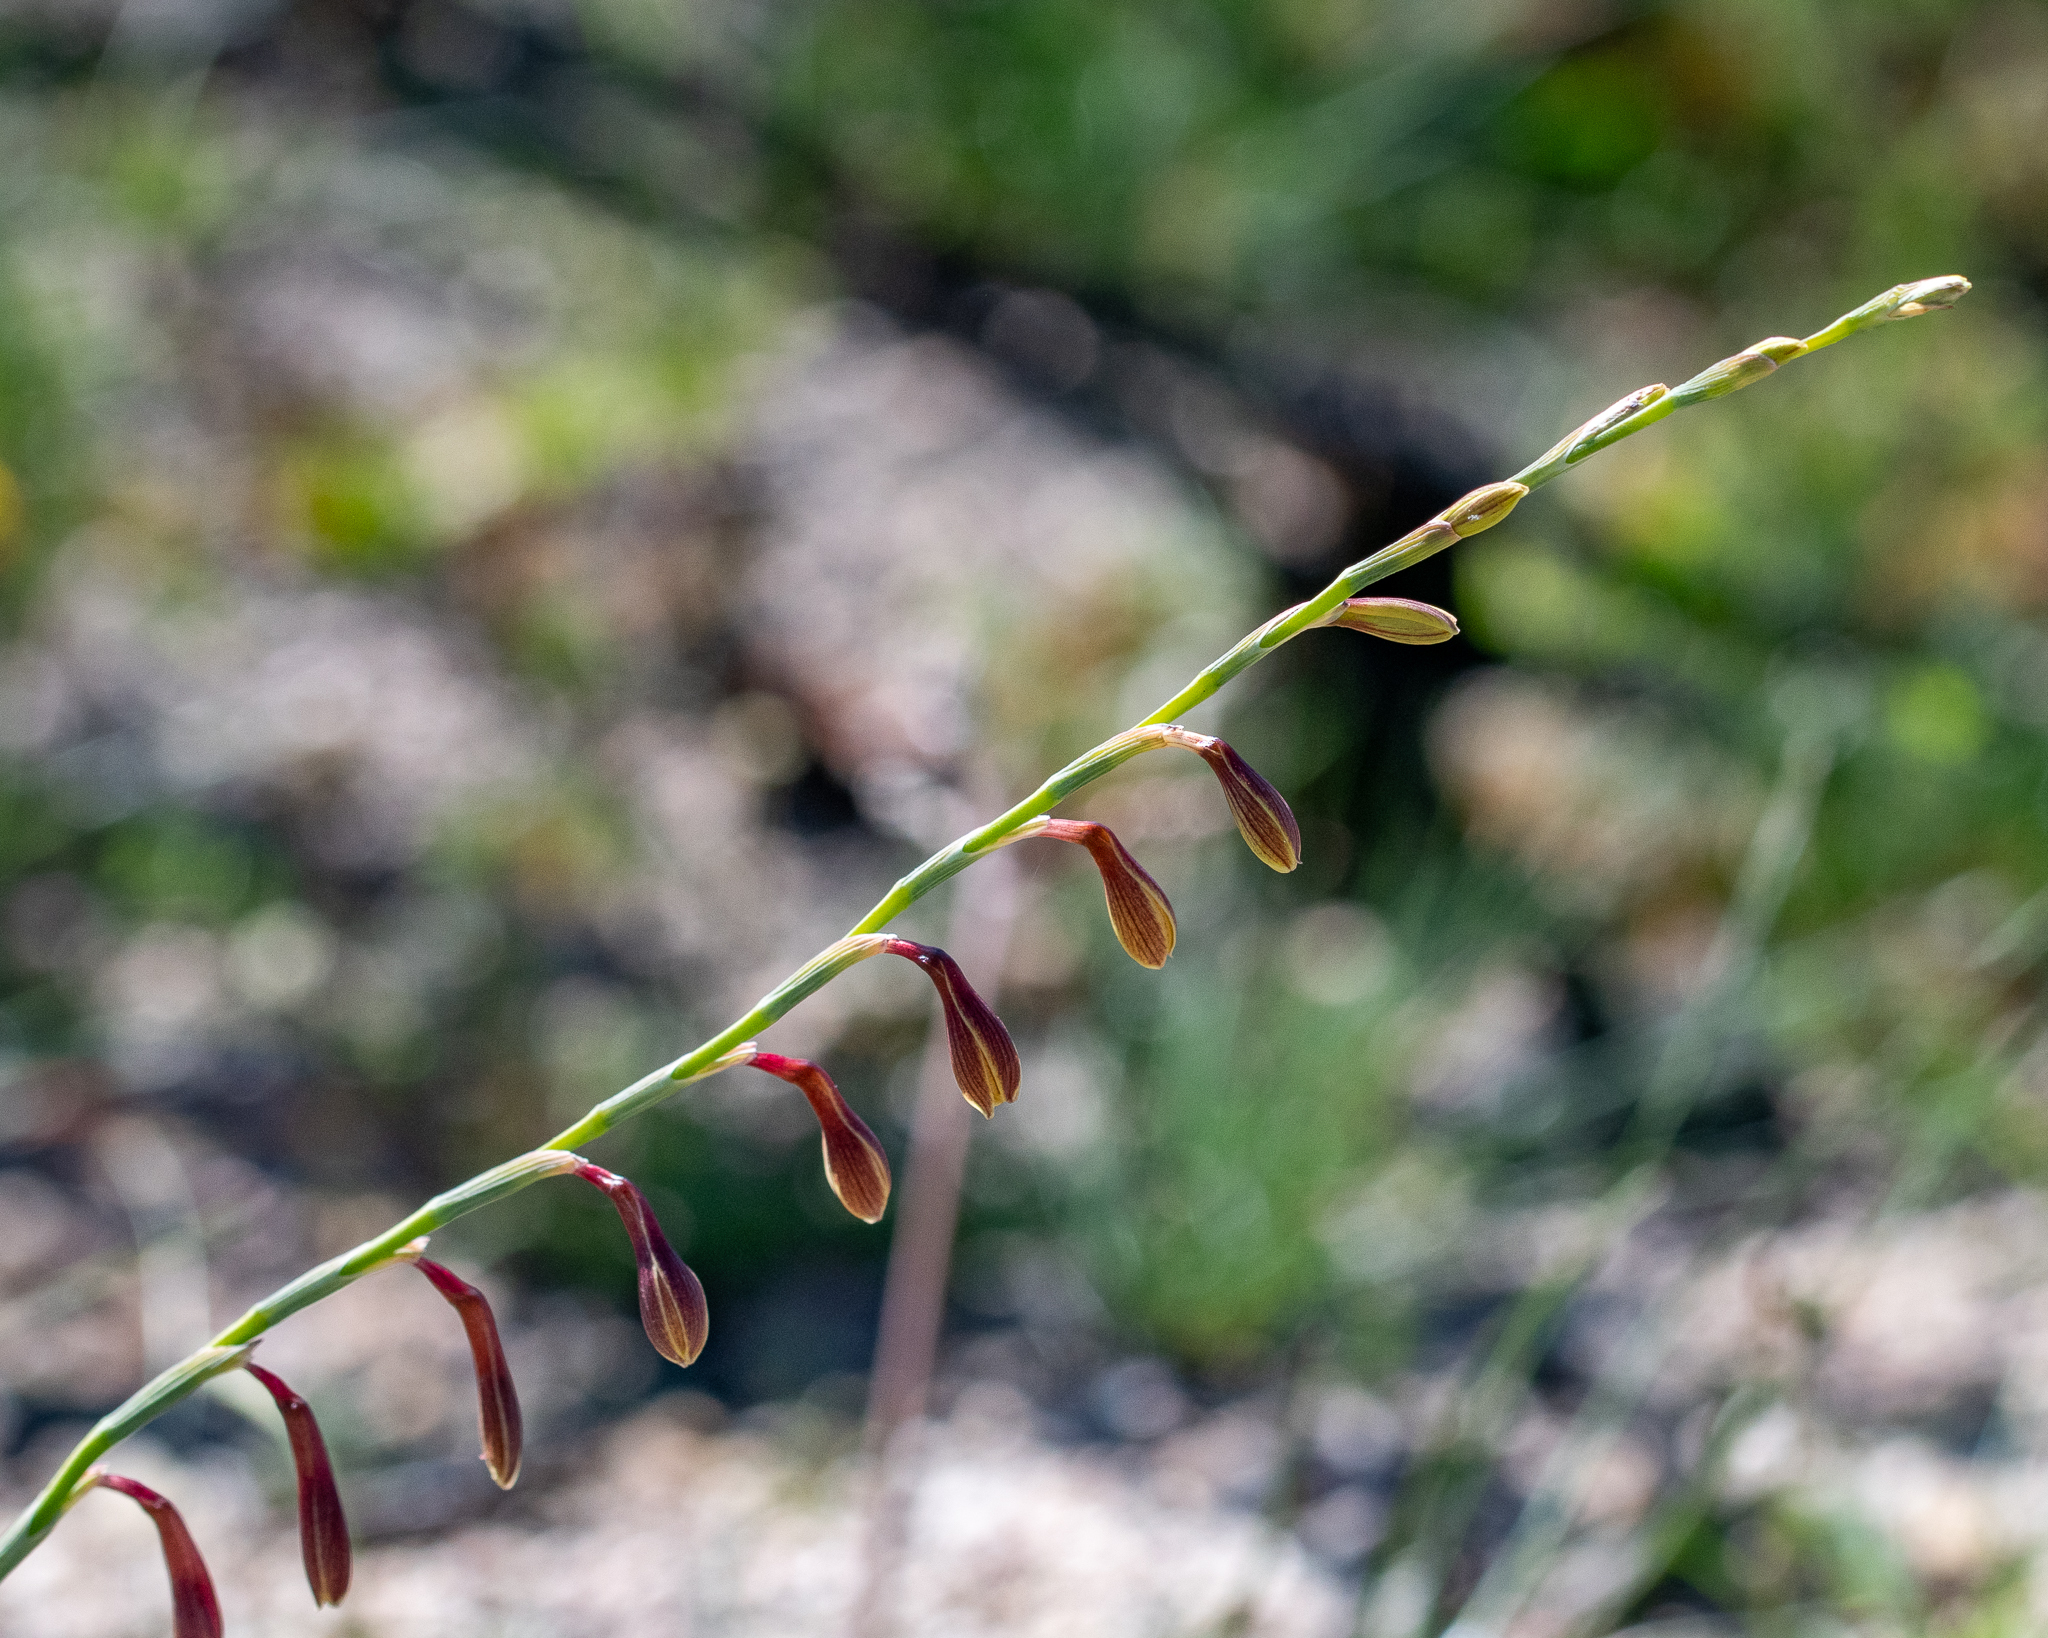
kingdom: Plantae
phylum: Tracheophyta
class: Liliopsida
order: Asparagales
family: Iridaceae
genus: Hesperantha
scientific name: Hesperantha radiata
